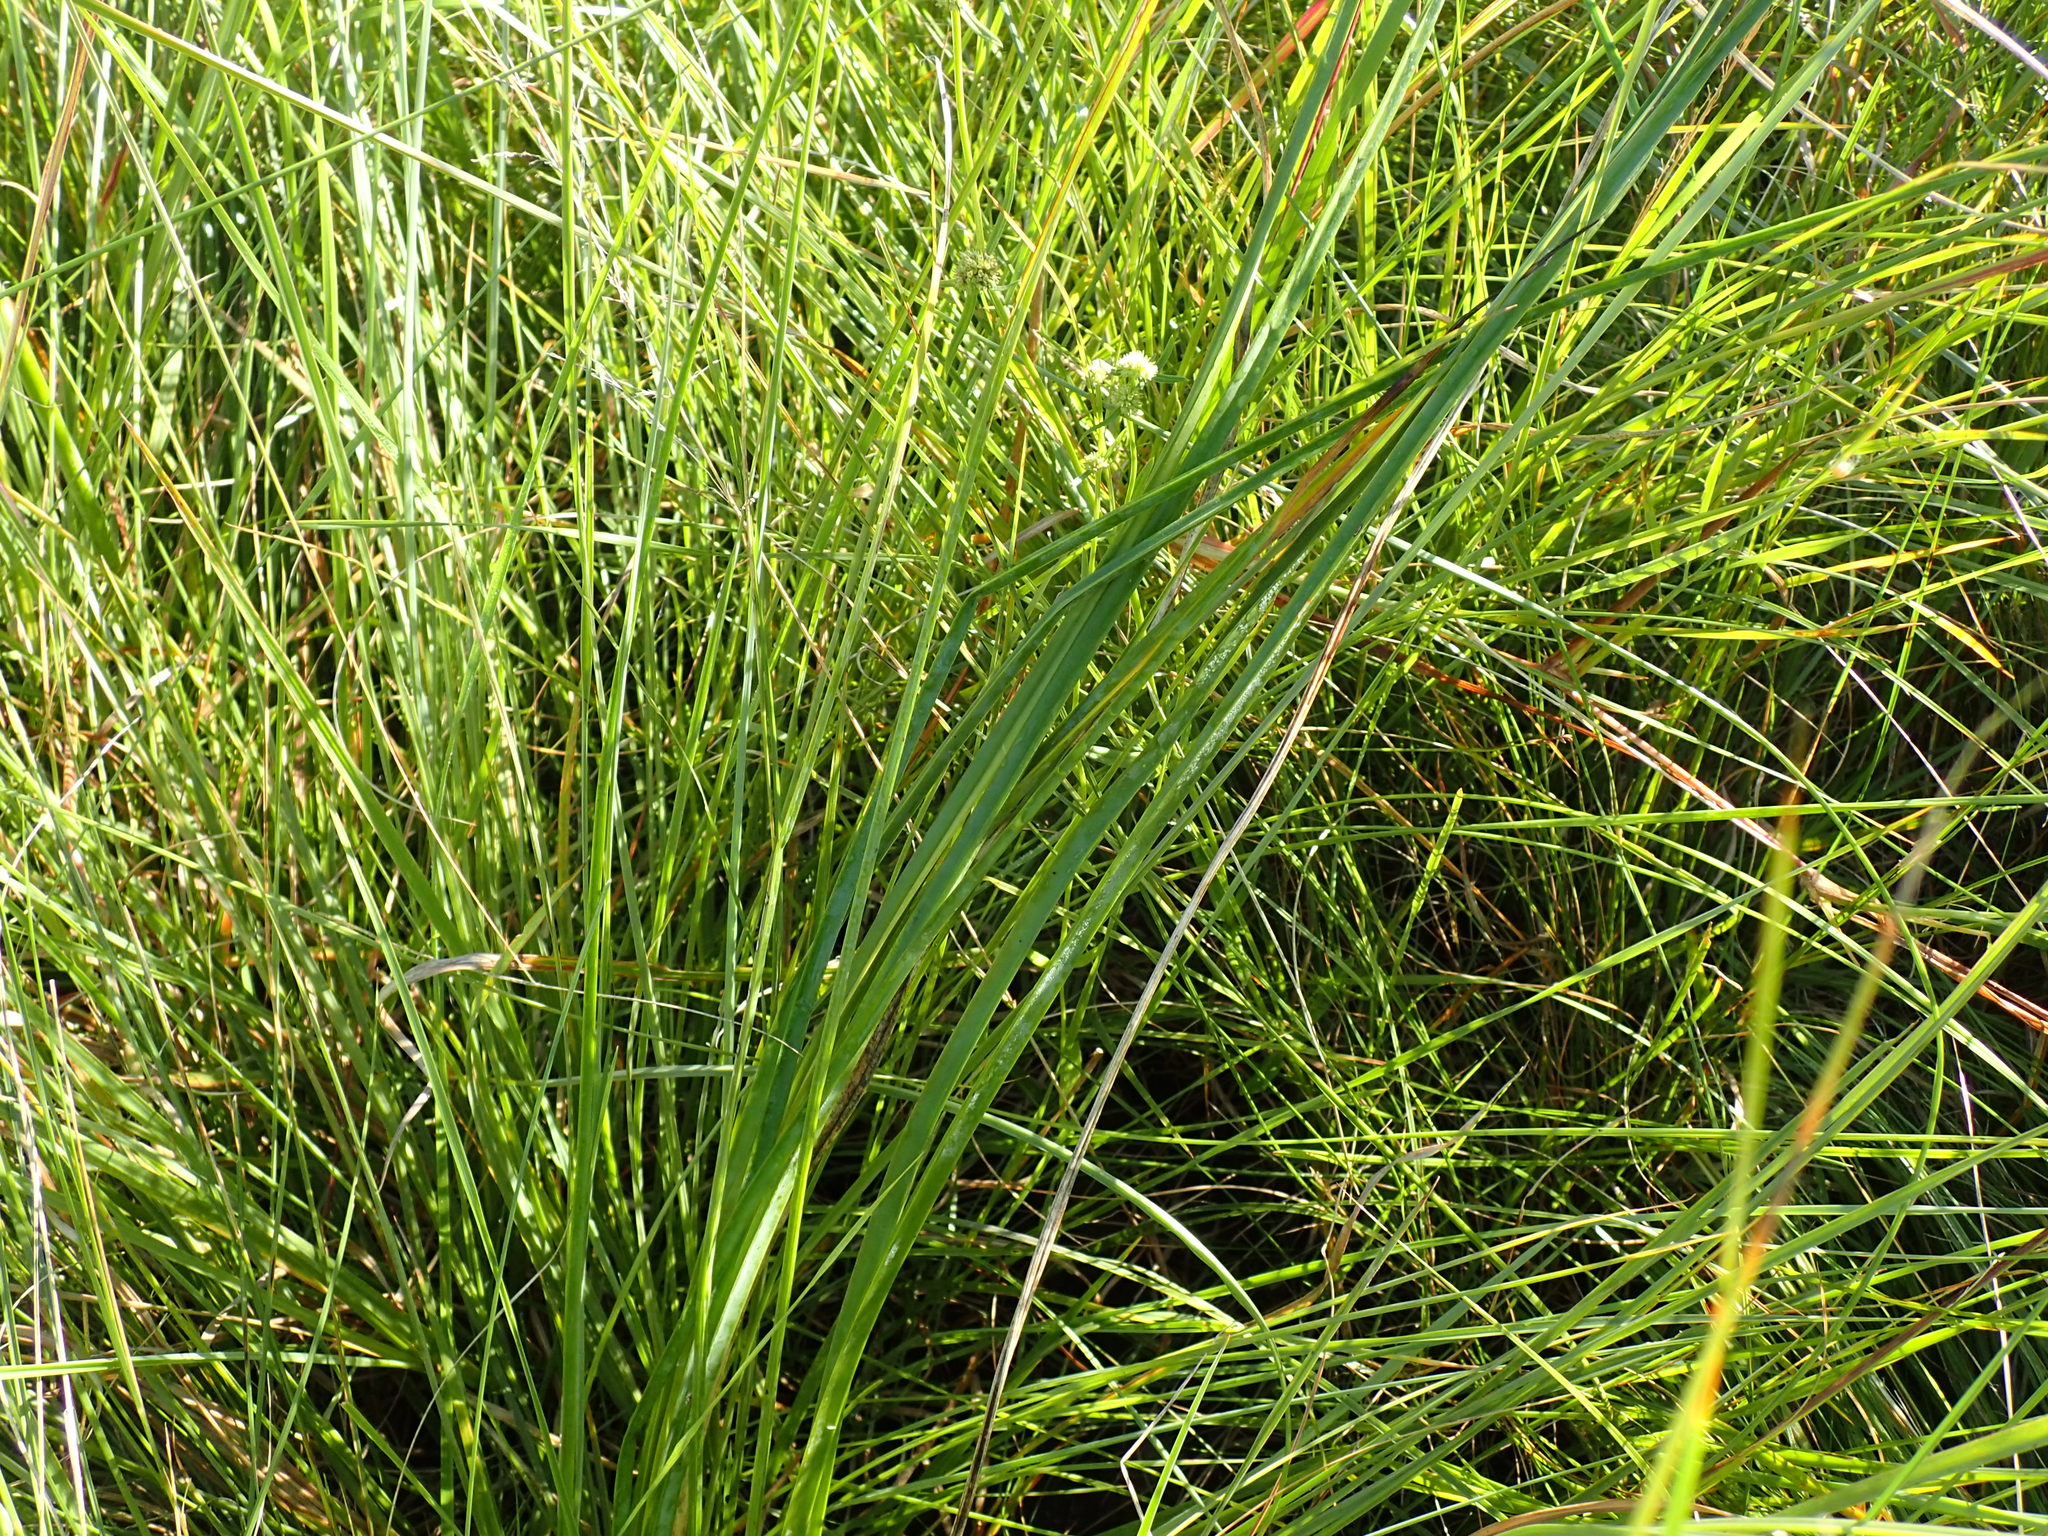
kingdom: Plantae
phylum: Tracheophyta
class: Liliopsida
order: Asparagales
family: Asphodelaceae
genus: Kniphofia
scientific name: Kniphofia buchananii
